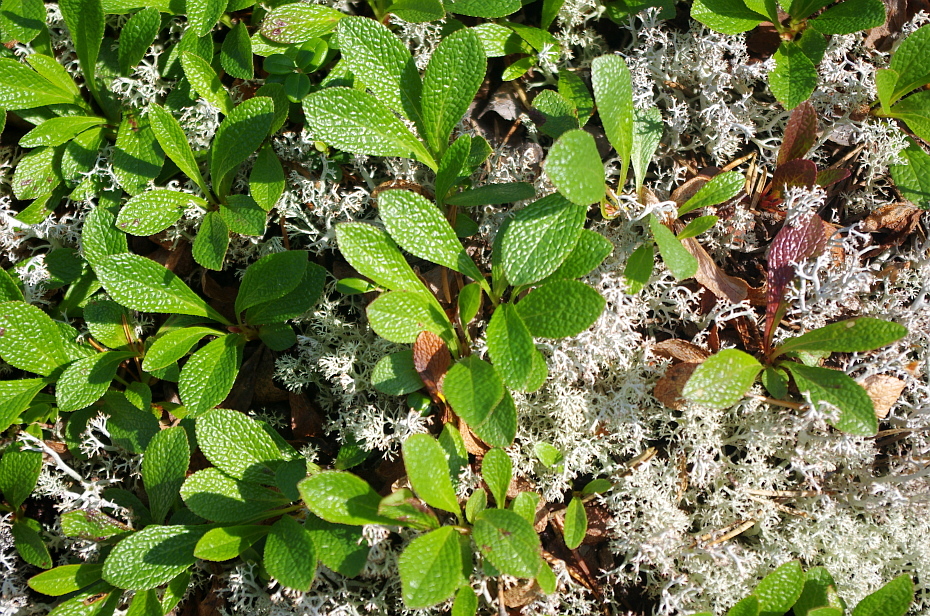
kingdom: Plantae
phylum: Tracheophyta
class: Magnoliopsida
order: Ericales
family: Ericaceae
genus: Arctostaphylos
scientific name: Arctostaphylos alpinus
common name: Alpine bearberry
